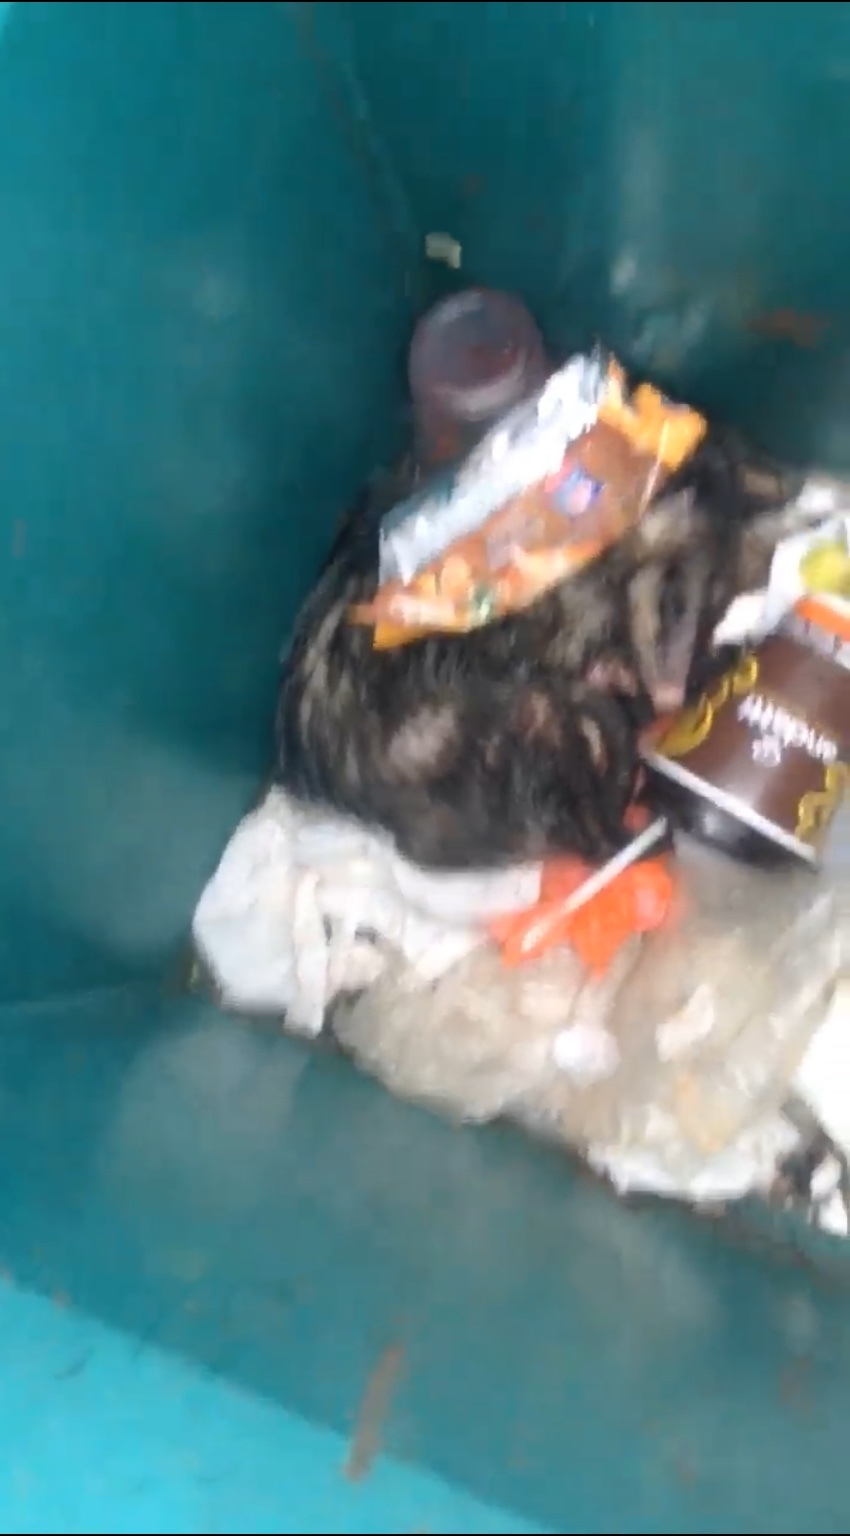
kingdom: Animalia
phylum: Chordata
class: Mammalia
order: Didelphimorphia
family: Didelphidae
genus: Didelphis
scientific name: Didelphis virginiana
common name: Virginia opossum
